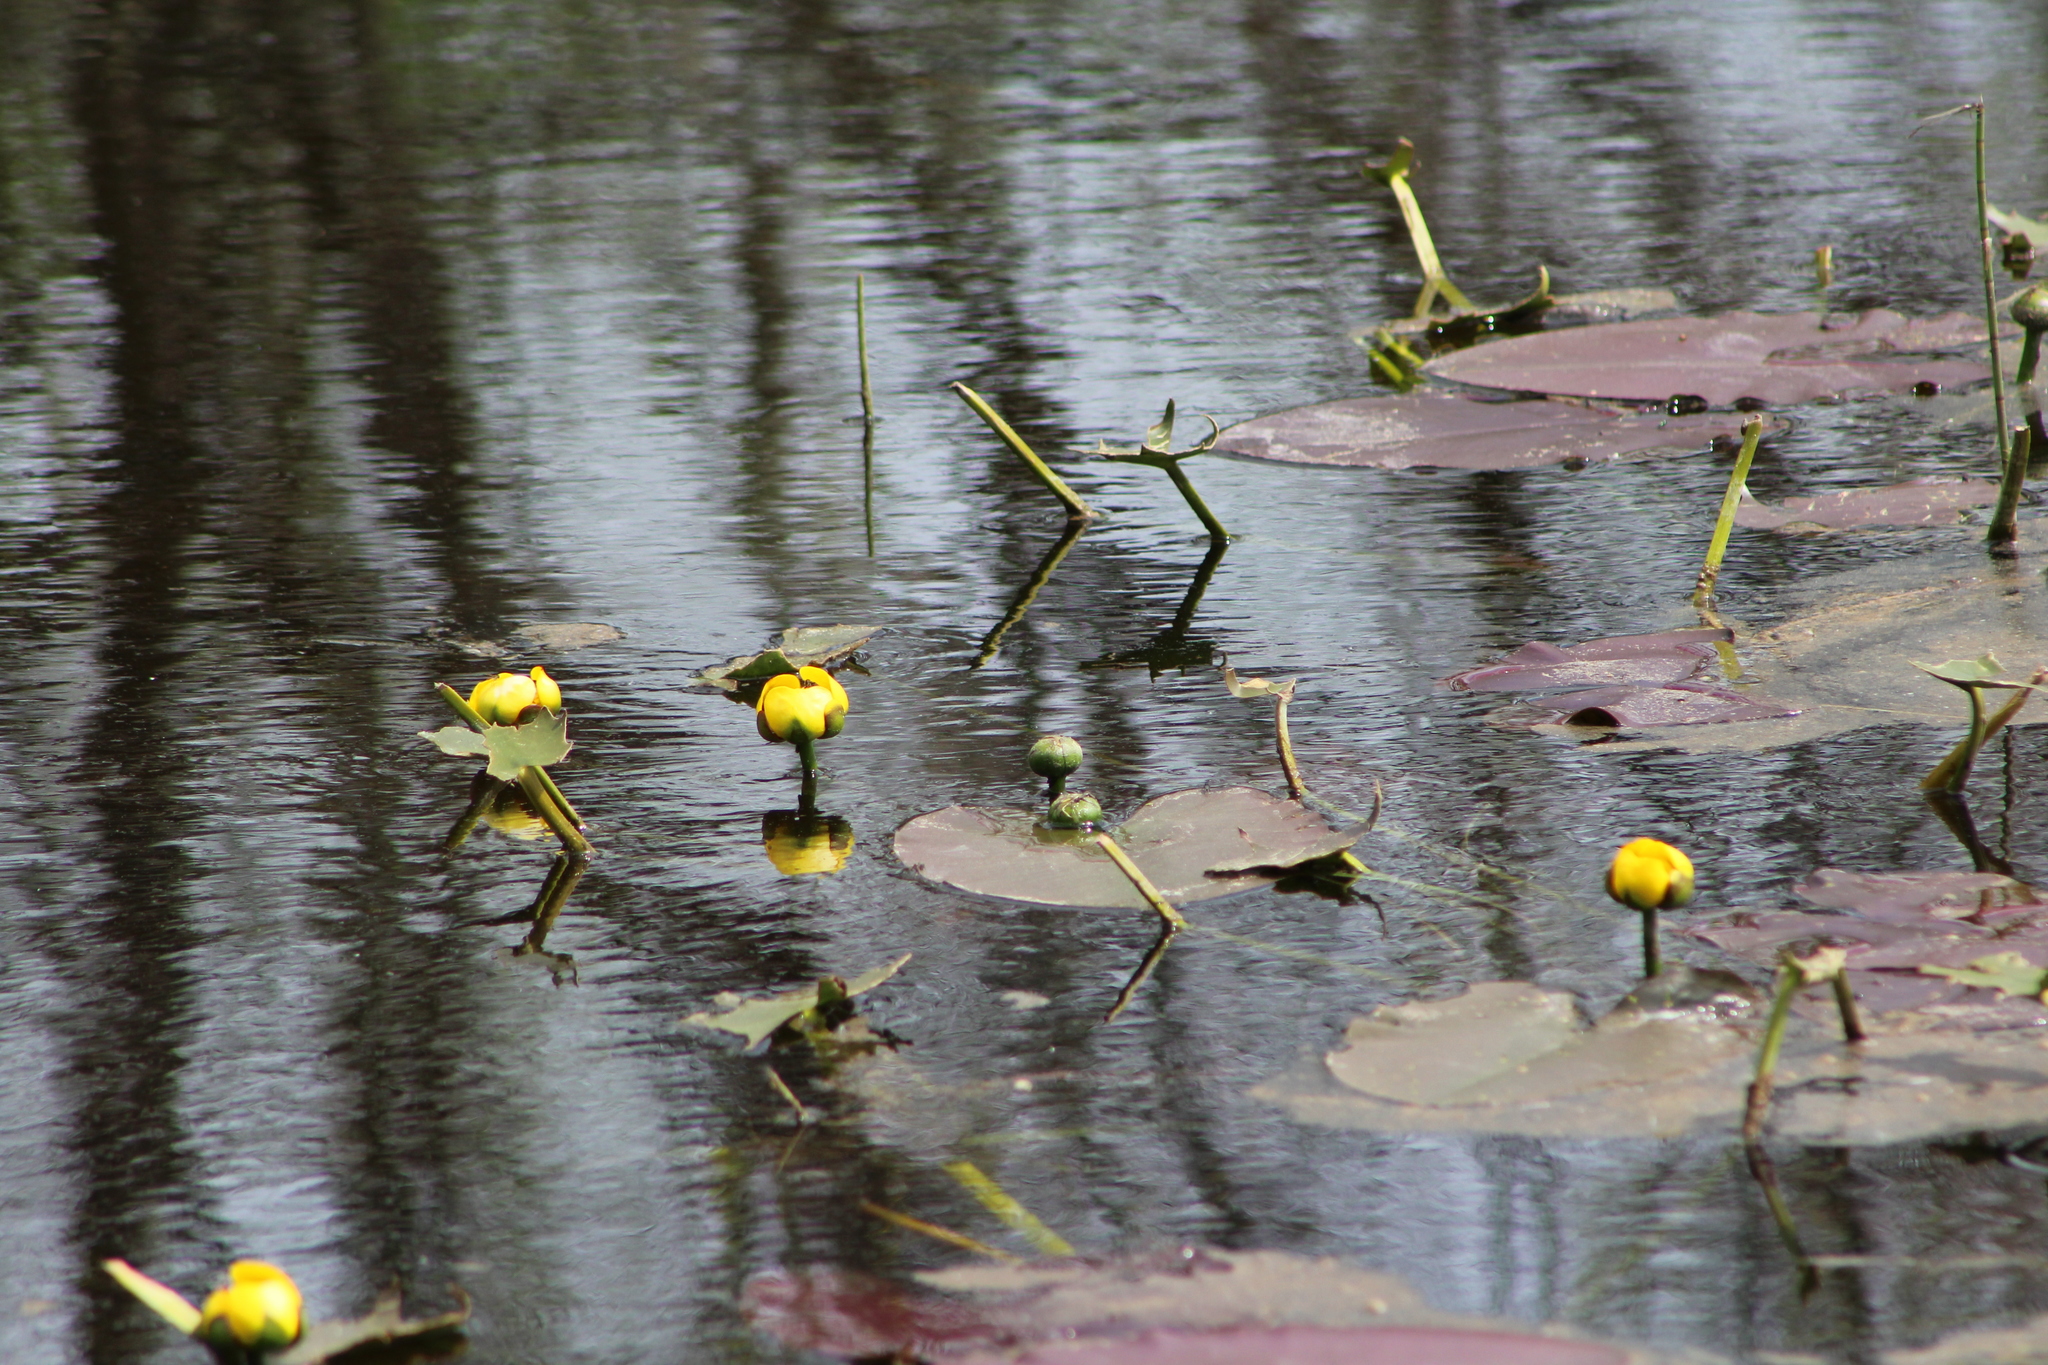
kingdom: Plantae
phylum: Tracheophyta
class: Magnoliopsida
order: Nymphaeales
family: Nymphaeaceae
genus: Nuphar
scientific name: Nuphar variegata
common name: Beaver-root
